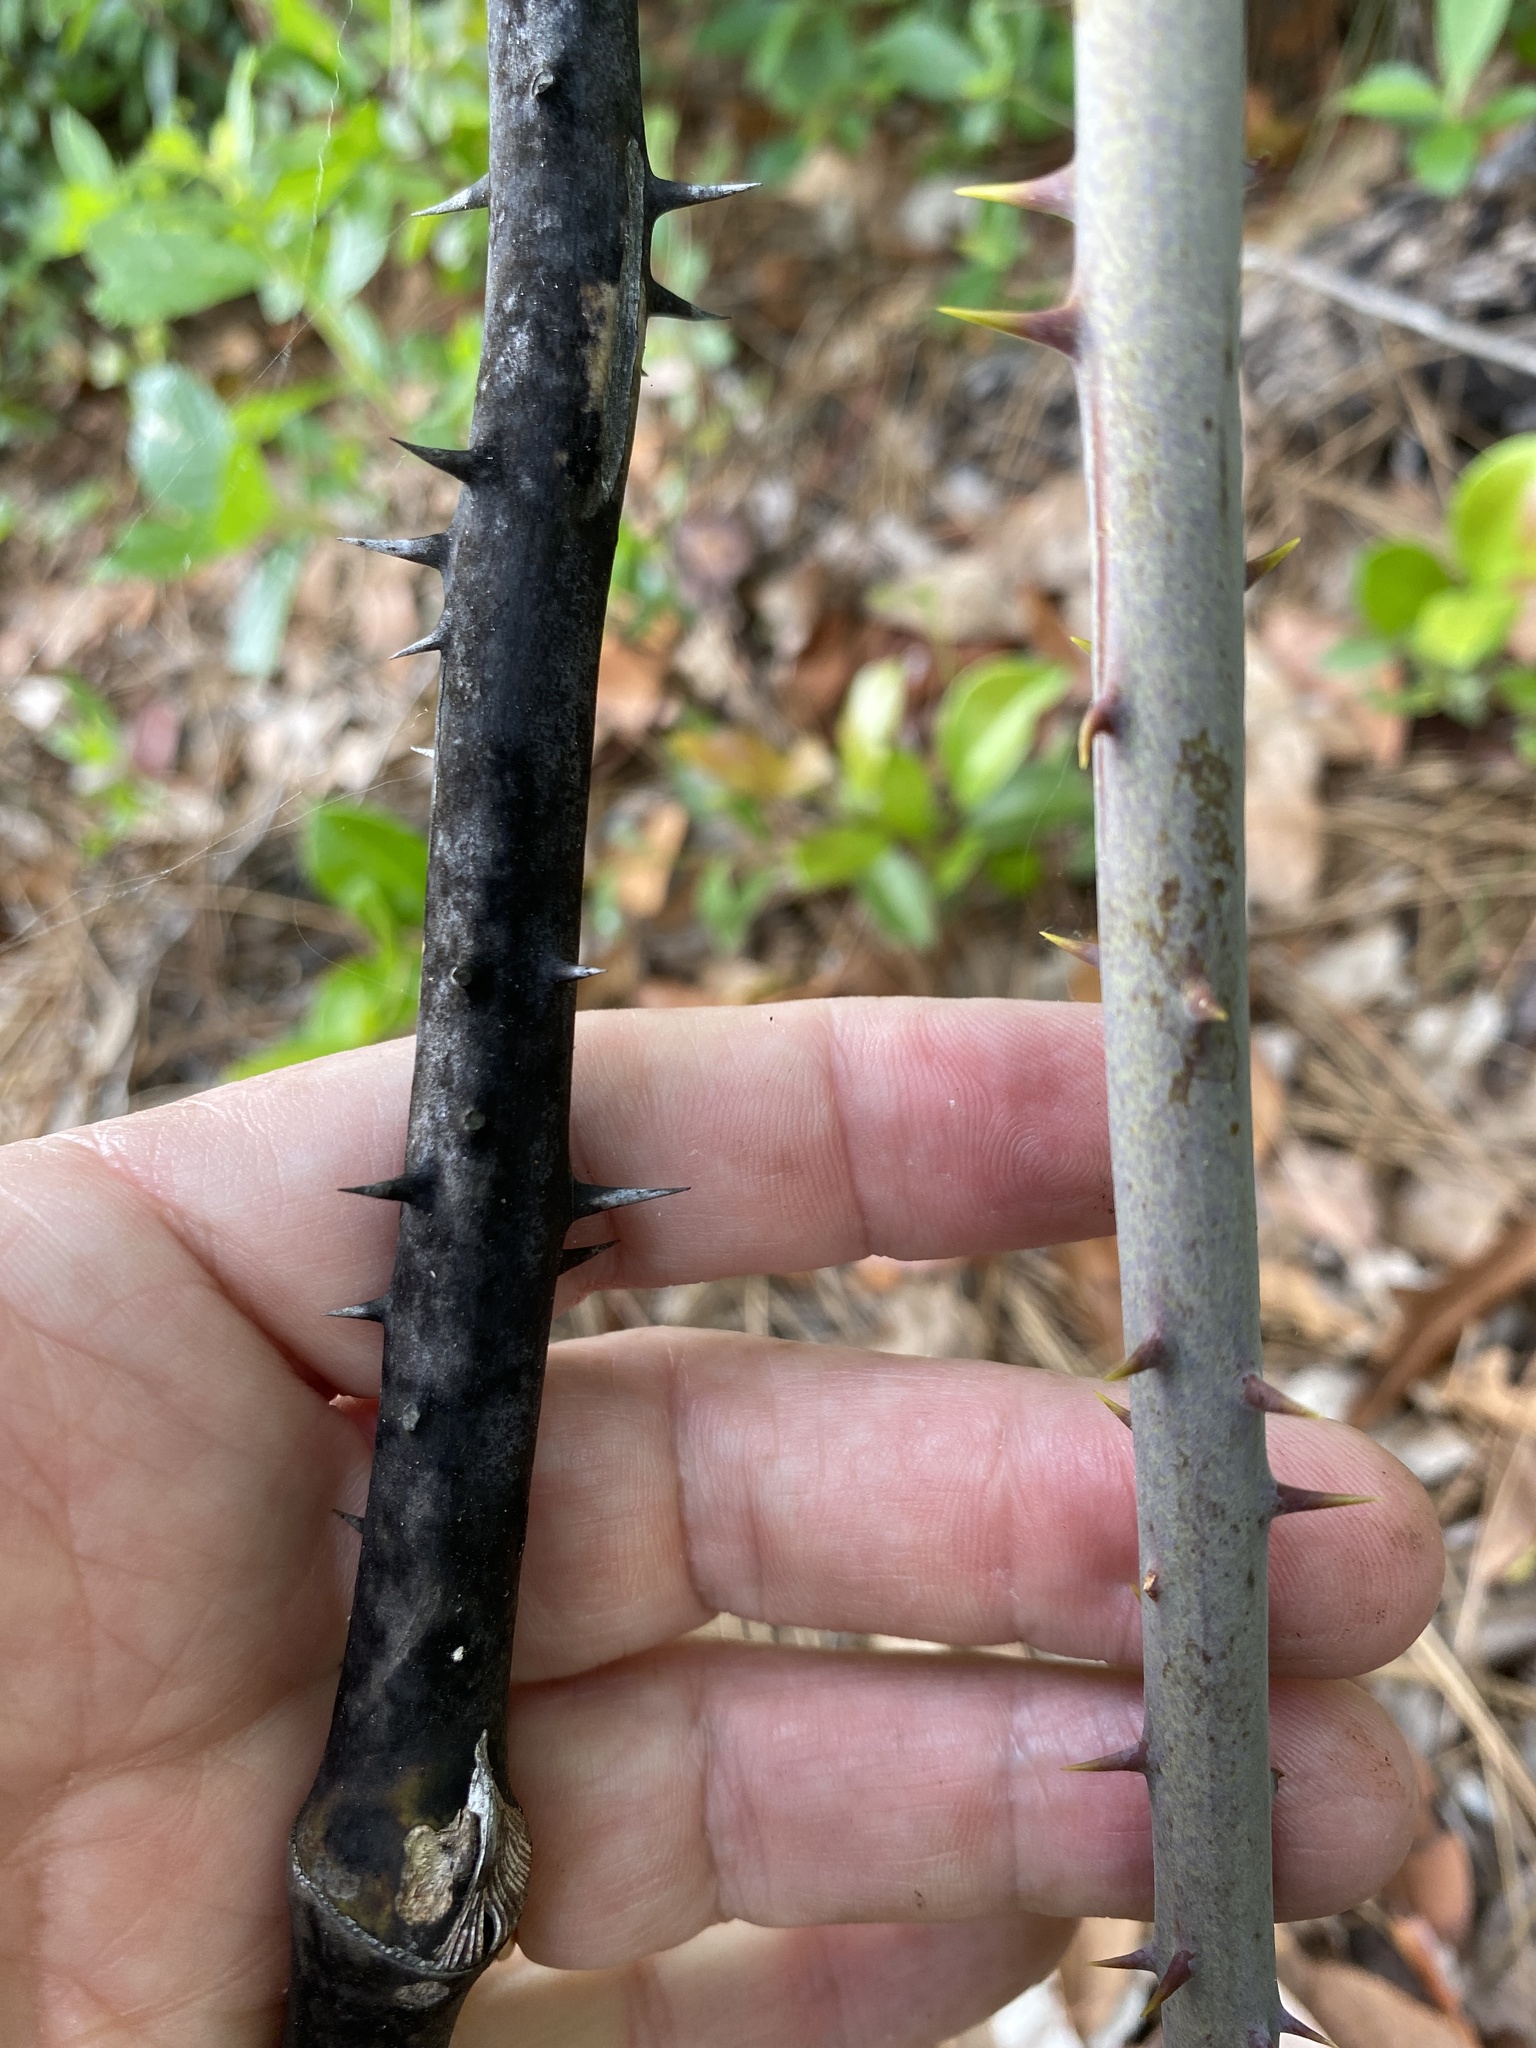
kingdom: Plantae
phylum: Tracheophyta
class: Liliopsida
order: Liliales
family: Smilacaceae
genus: Smilax
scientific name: Smilax laurifolia
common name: Bamboovine
